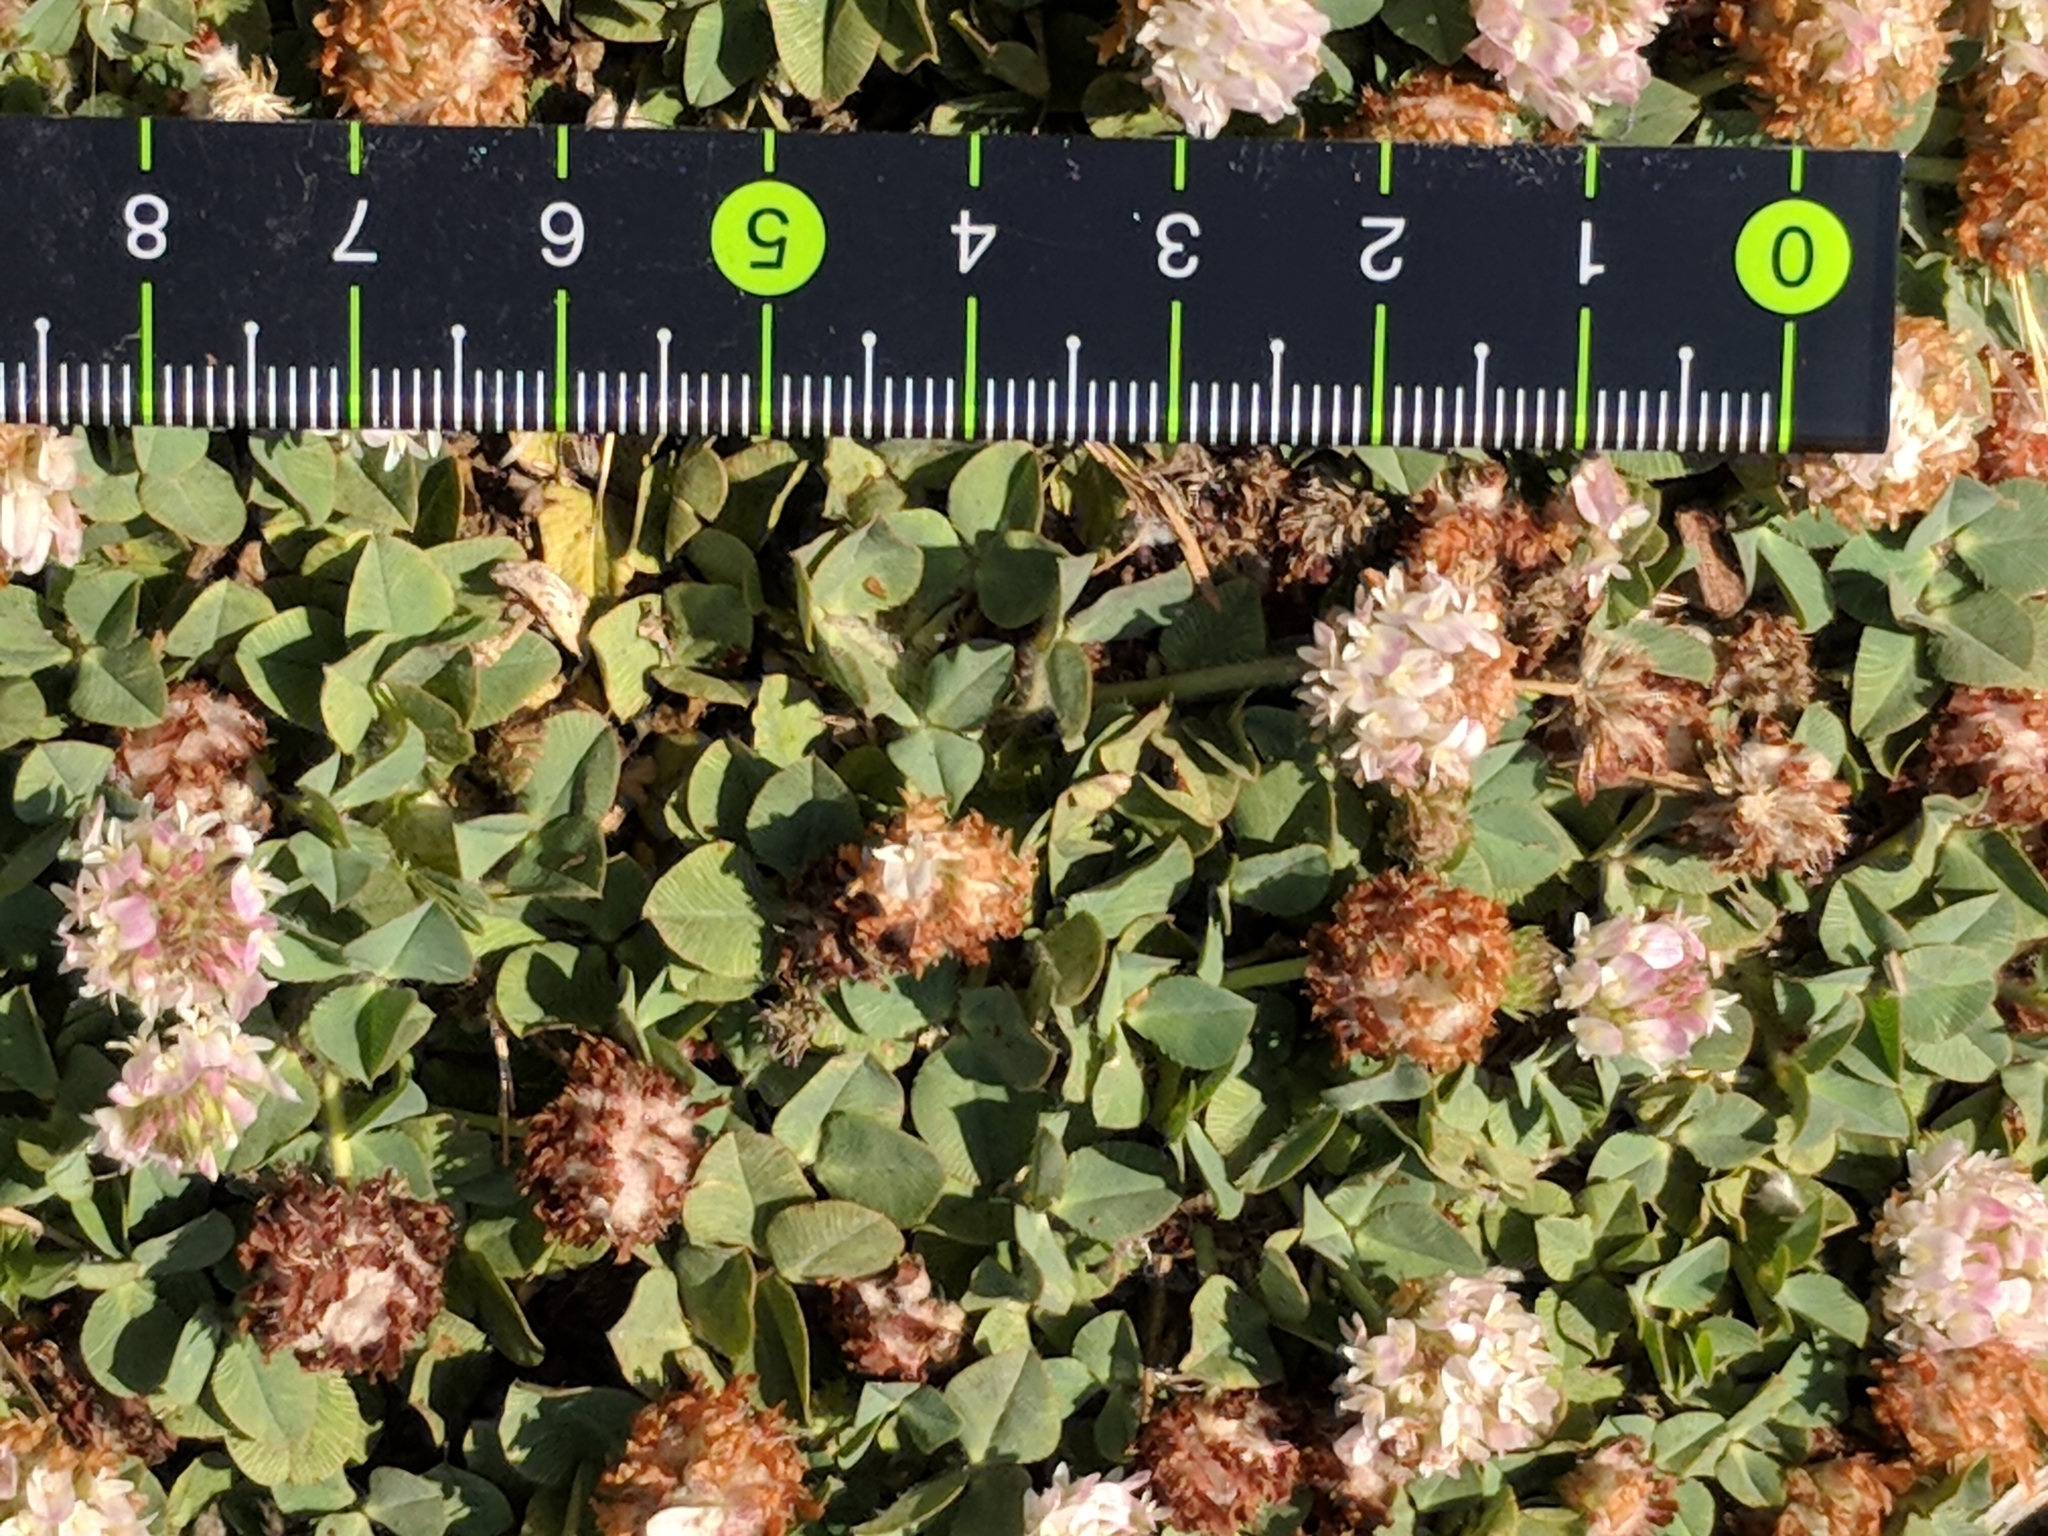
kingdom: Plantae
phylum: Tracheophyta
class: Magnoliopsida
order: Fabales
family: Fabaceae
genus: Trifolium
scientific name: Trifolium fragiferum
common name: Strawberry clover
